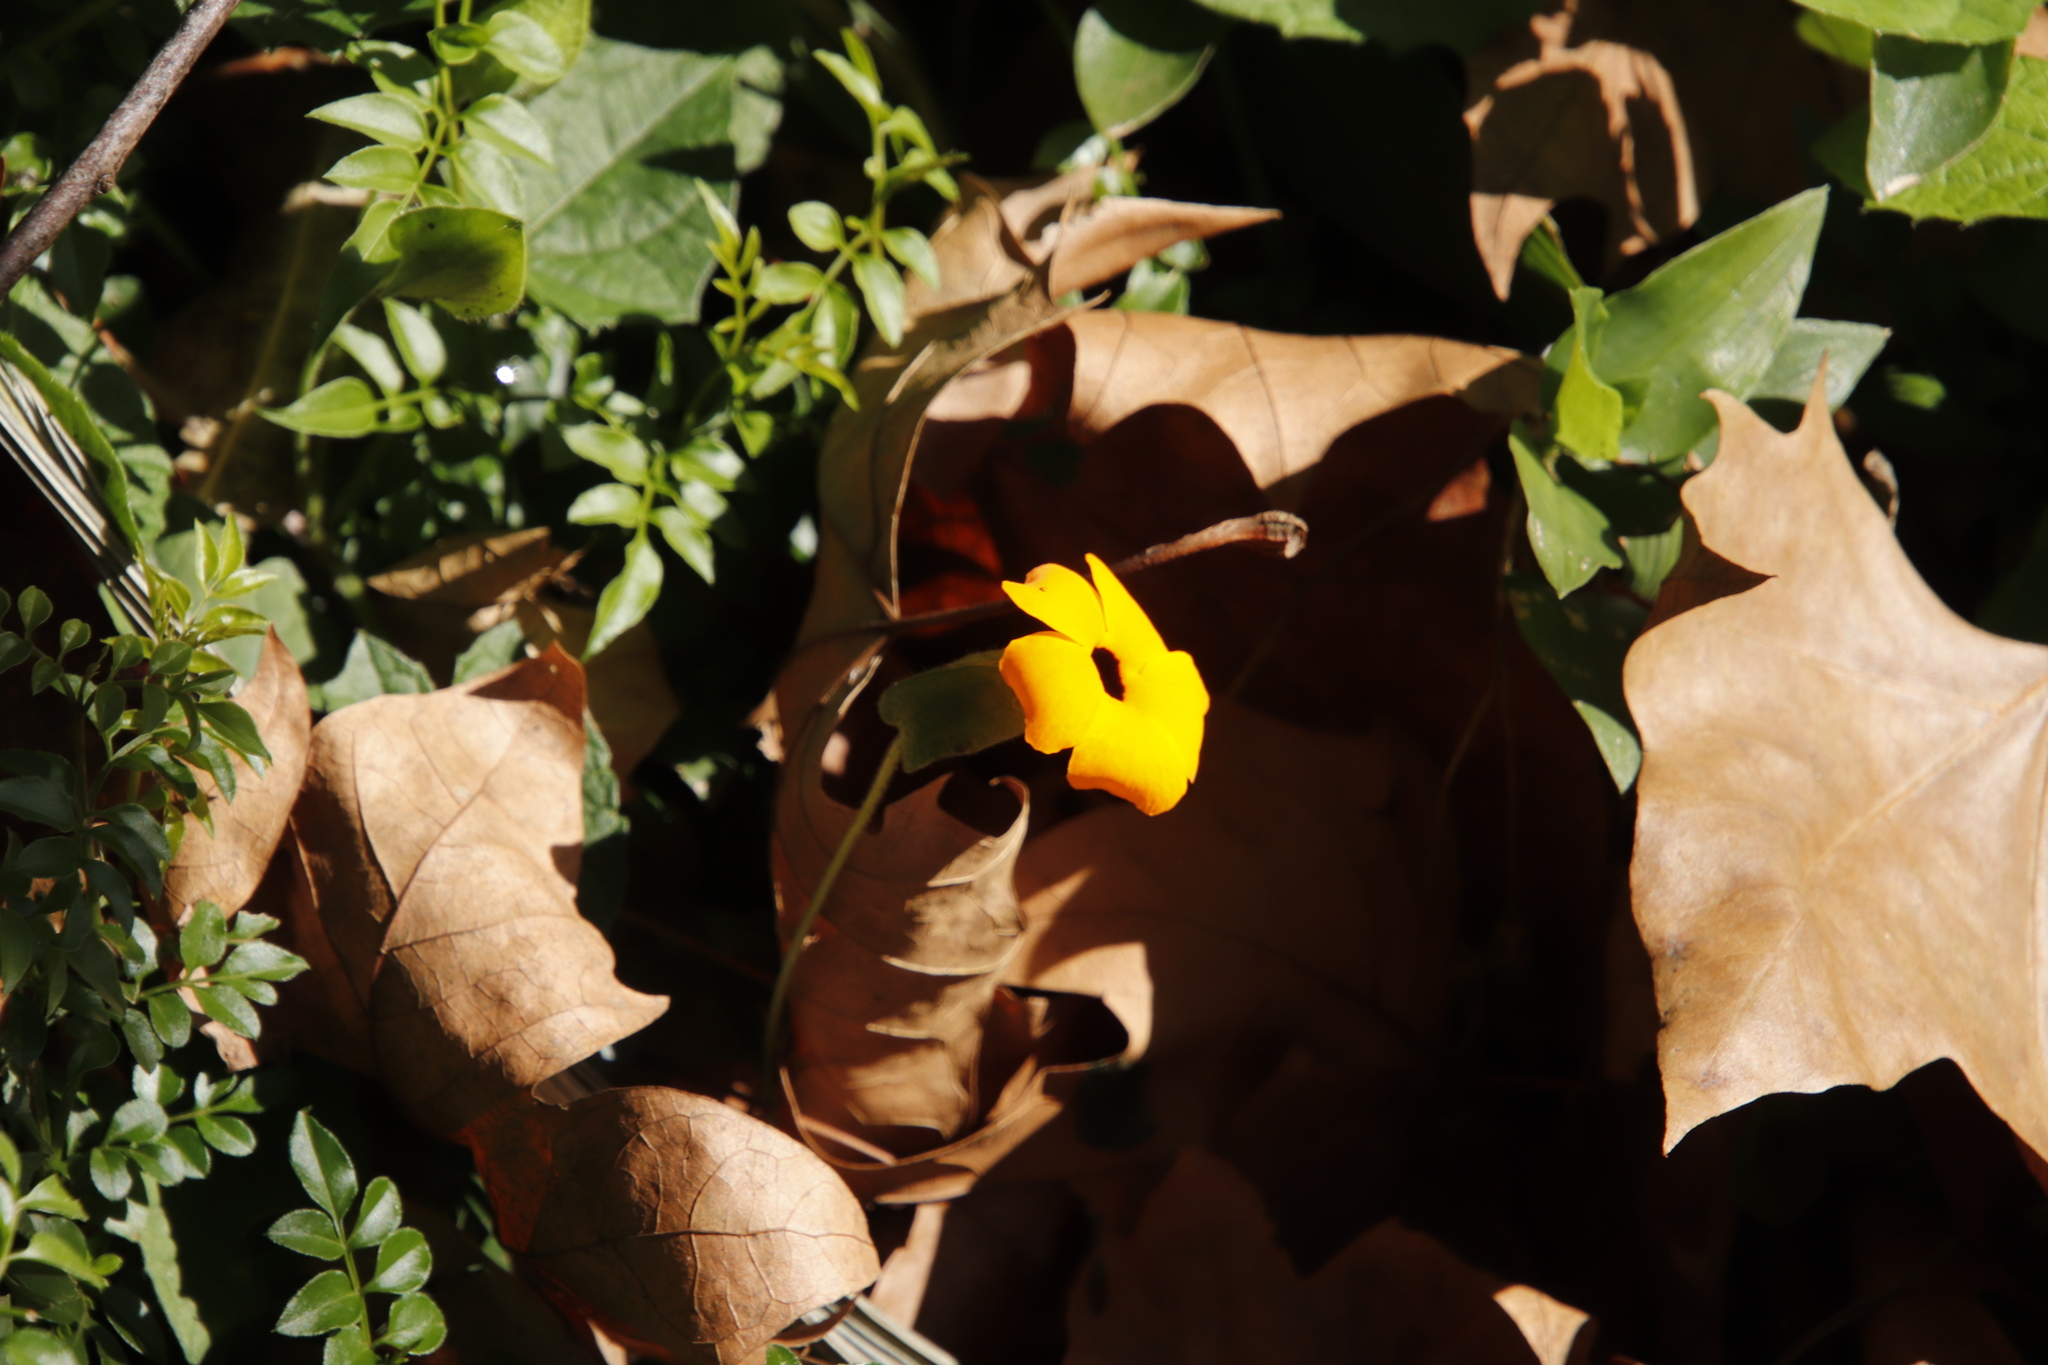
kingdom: Plantae
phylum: Tracheophyta
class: Magnoliopsida
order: Lamiales
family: Acanthaceae
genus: Thunbergia
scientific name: Thunbergia alata
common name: Blackeyed susan vine
